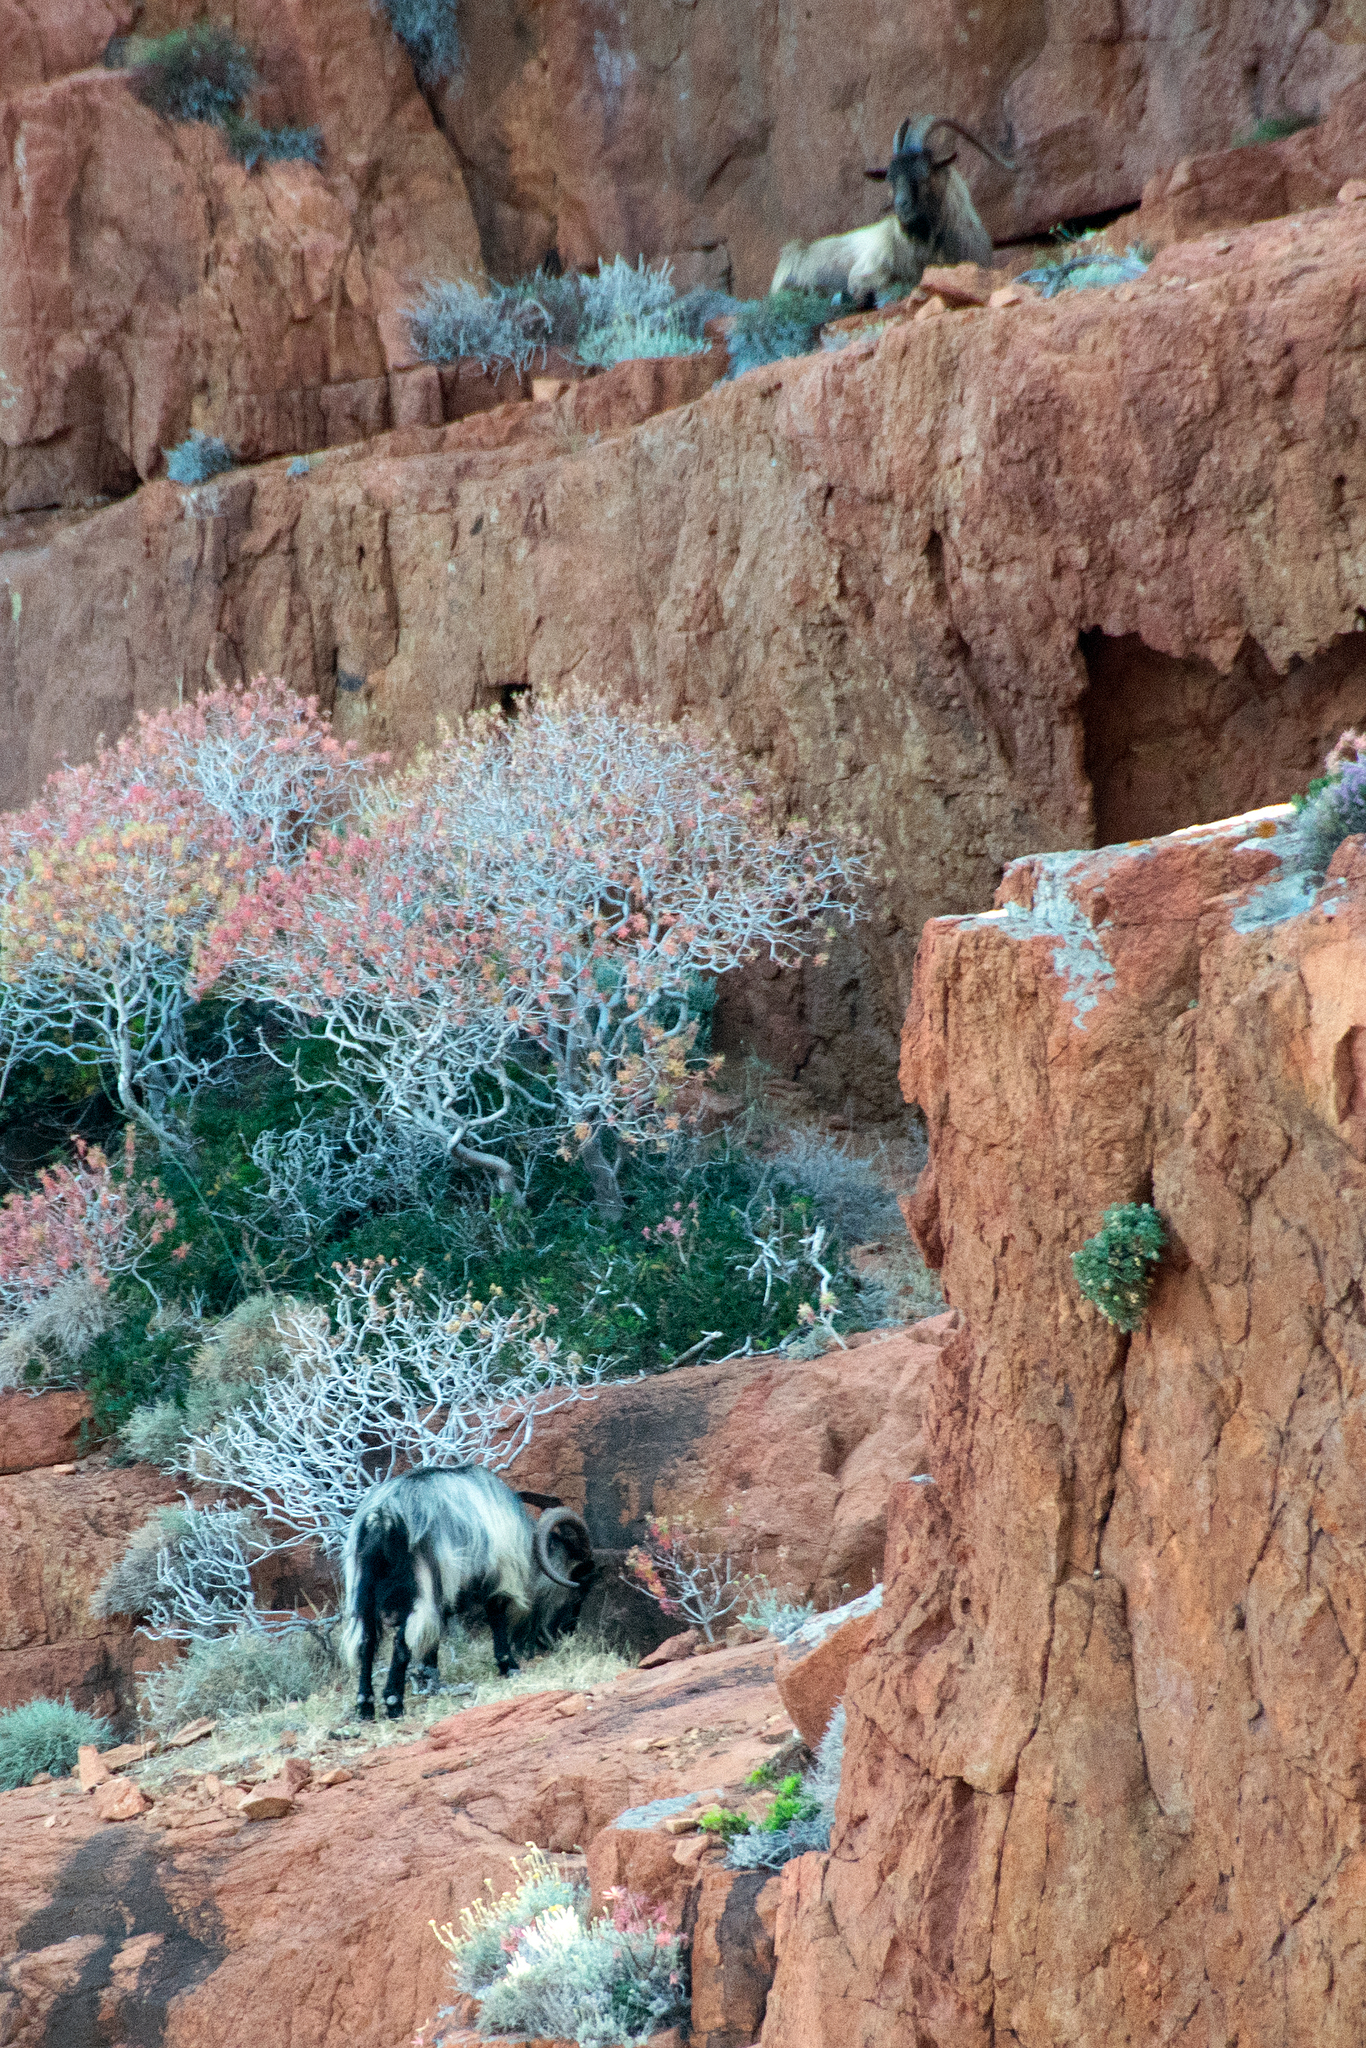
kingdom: Animalia
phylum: Chordata
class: Mammalia
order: Artiodactyla
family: Bovidae
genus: Capra
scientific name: Capra hircus
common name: Domestic goat
